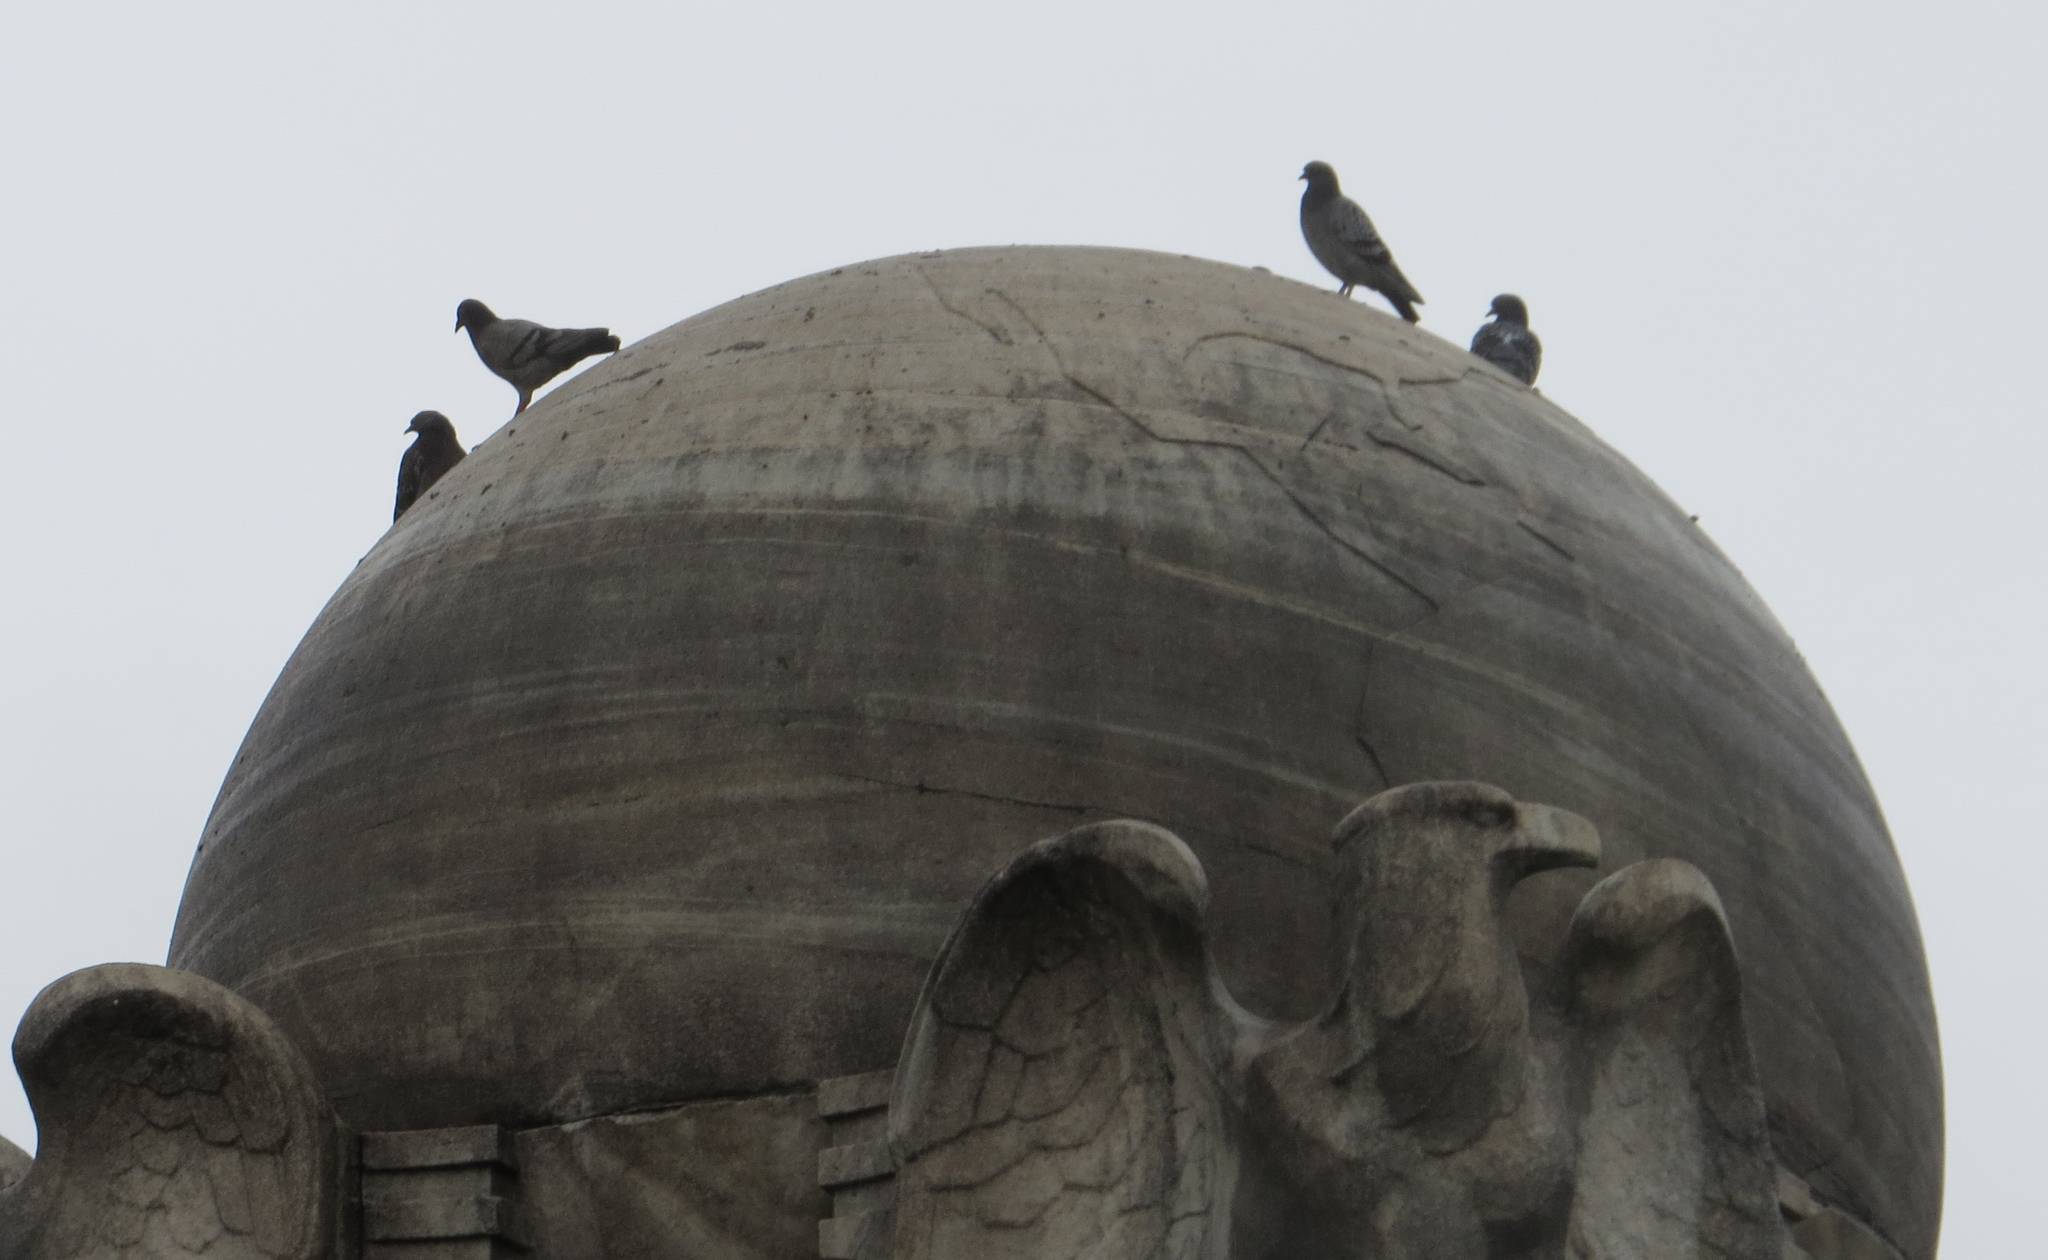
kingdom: Animalia
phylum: Chordata
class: Aves
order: Columbiformes
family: Columbidae
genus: Columba
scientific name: Columba livia
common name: Rock pigeon
